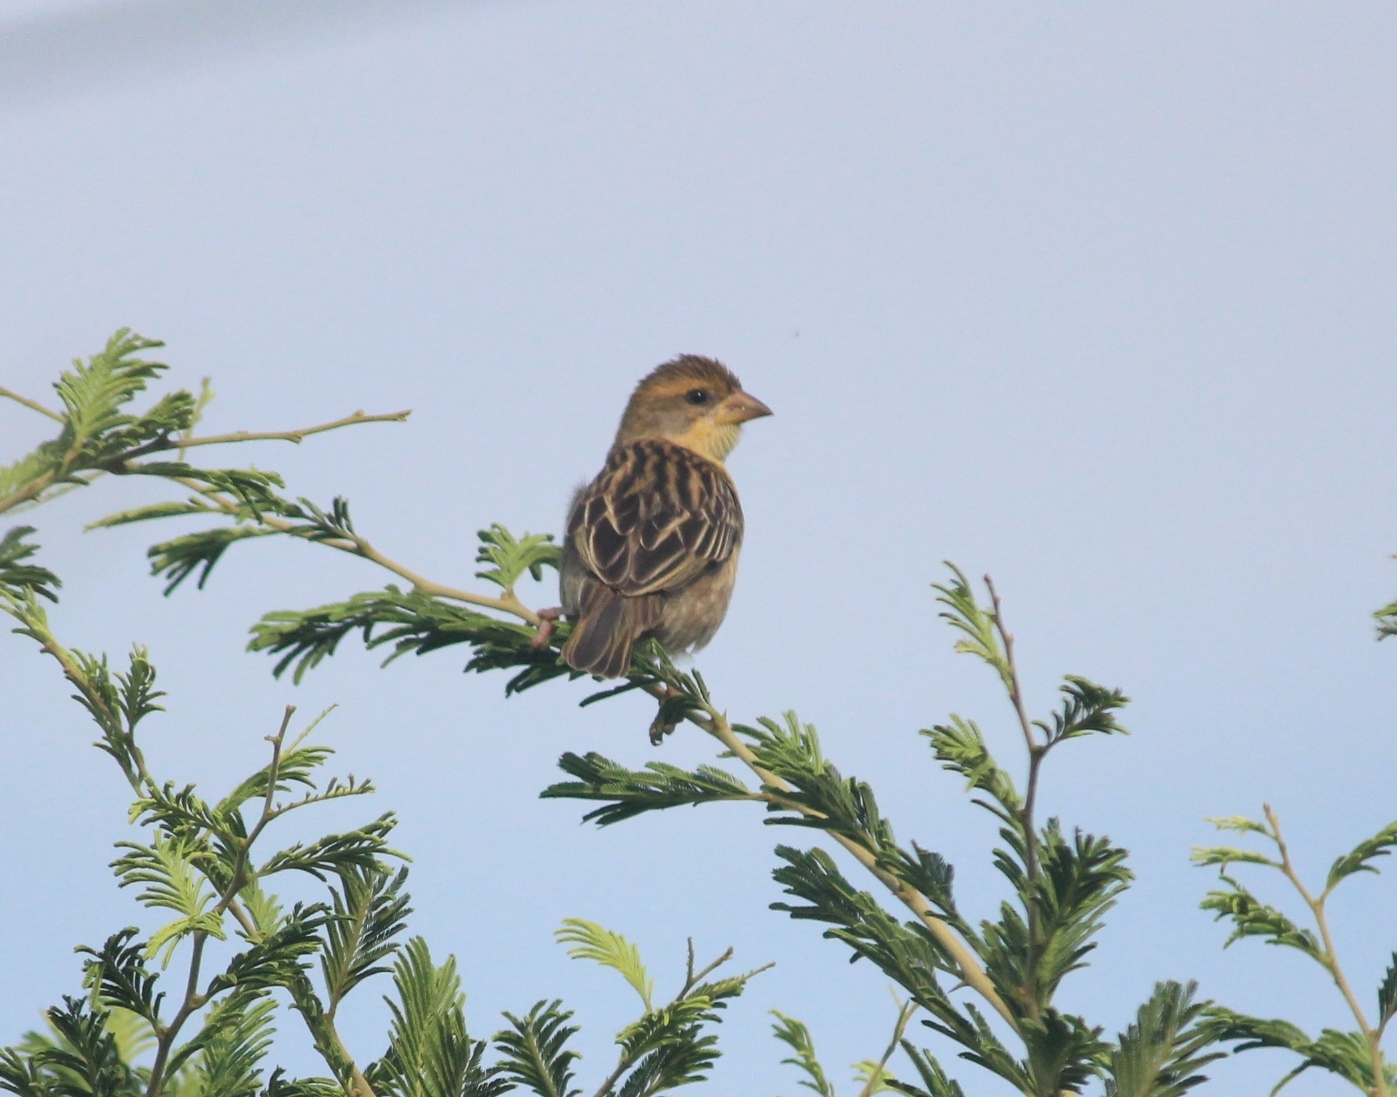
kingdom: Animalia
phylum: Chordata
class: Aves
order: Passeriformes
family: Ploceidae
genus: Ploceus
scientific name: Ploceus philippinus
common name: Baya weaver
